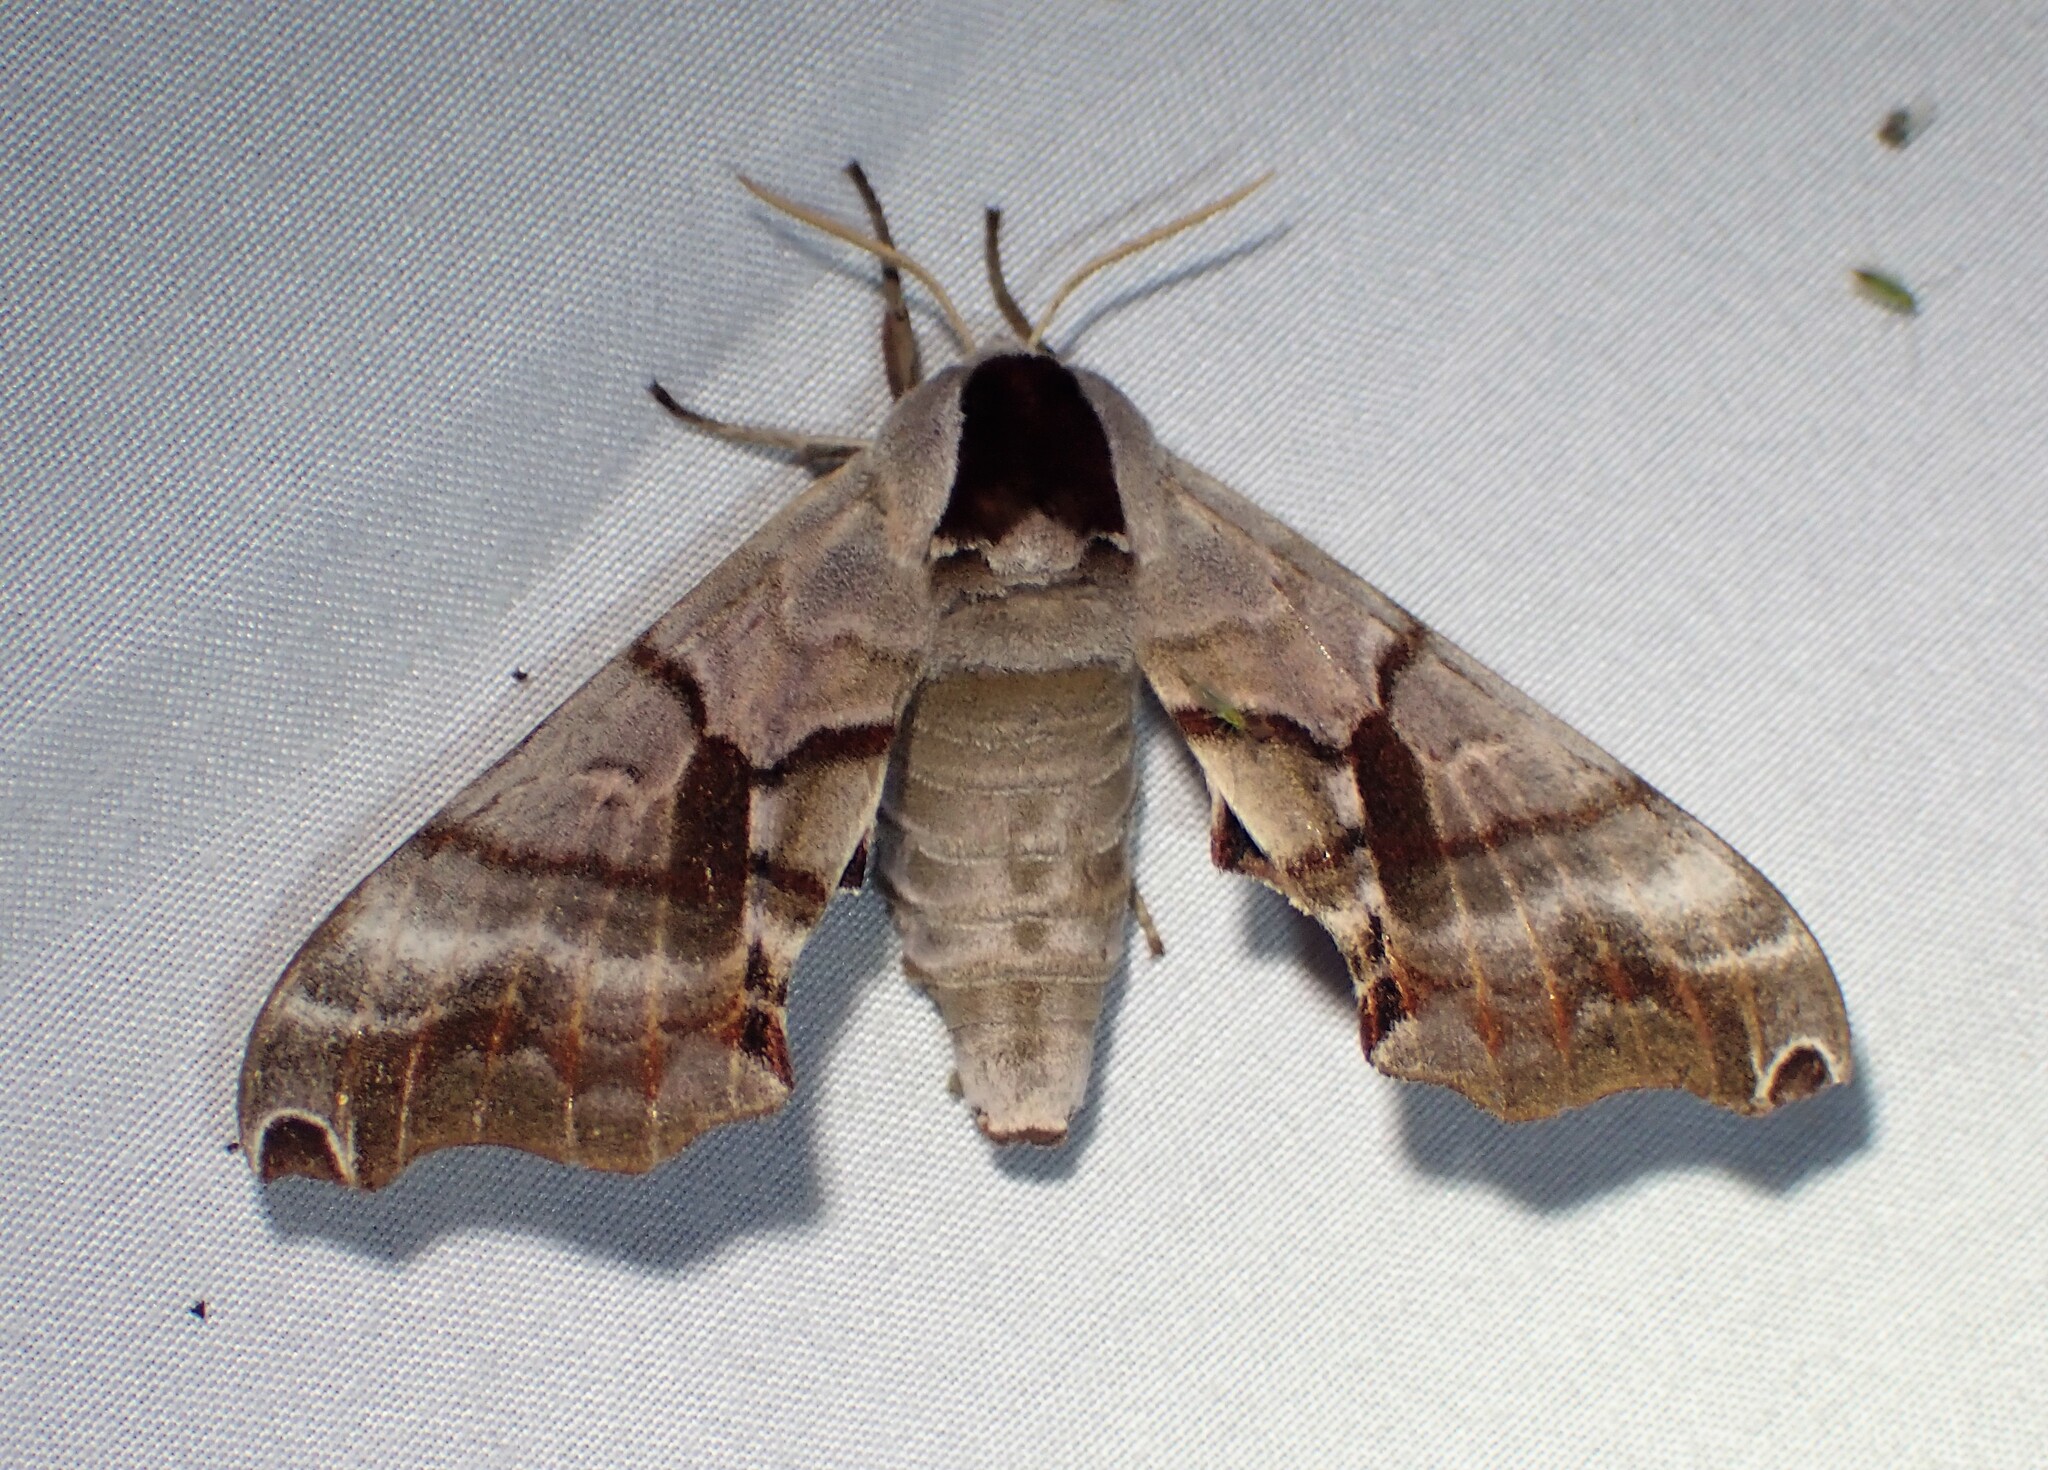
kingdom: Animalia
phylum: Arthropoda
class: Insecta
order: Lepidoptera
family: Sphingidae
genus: Smerinthus
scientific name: Smerinthus jamaicensis
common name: Twin spotted sphinx
